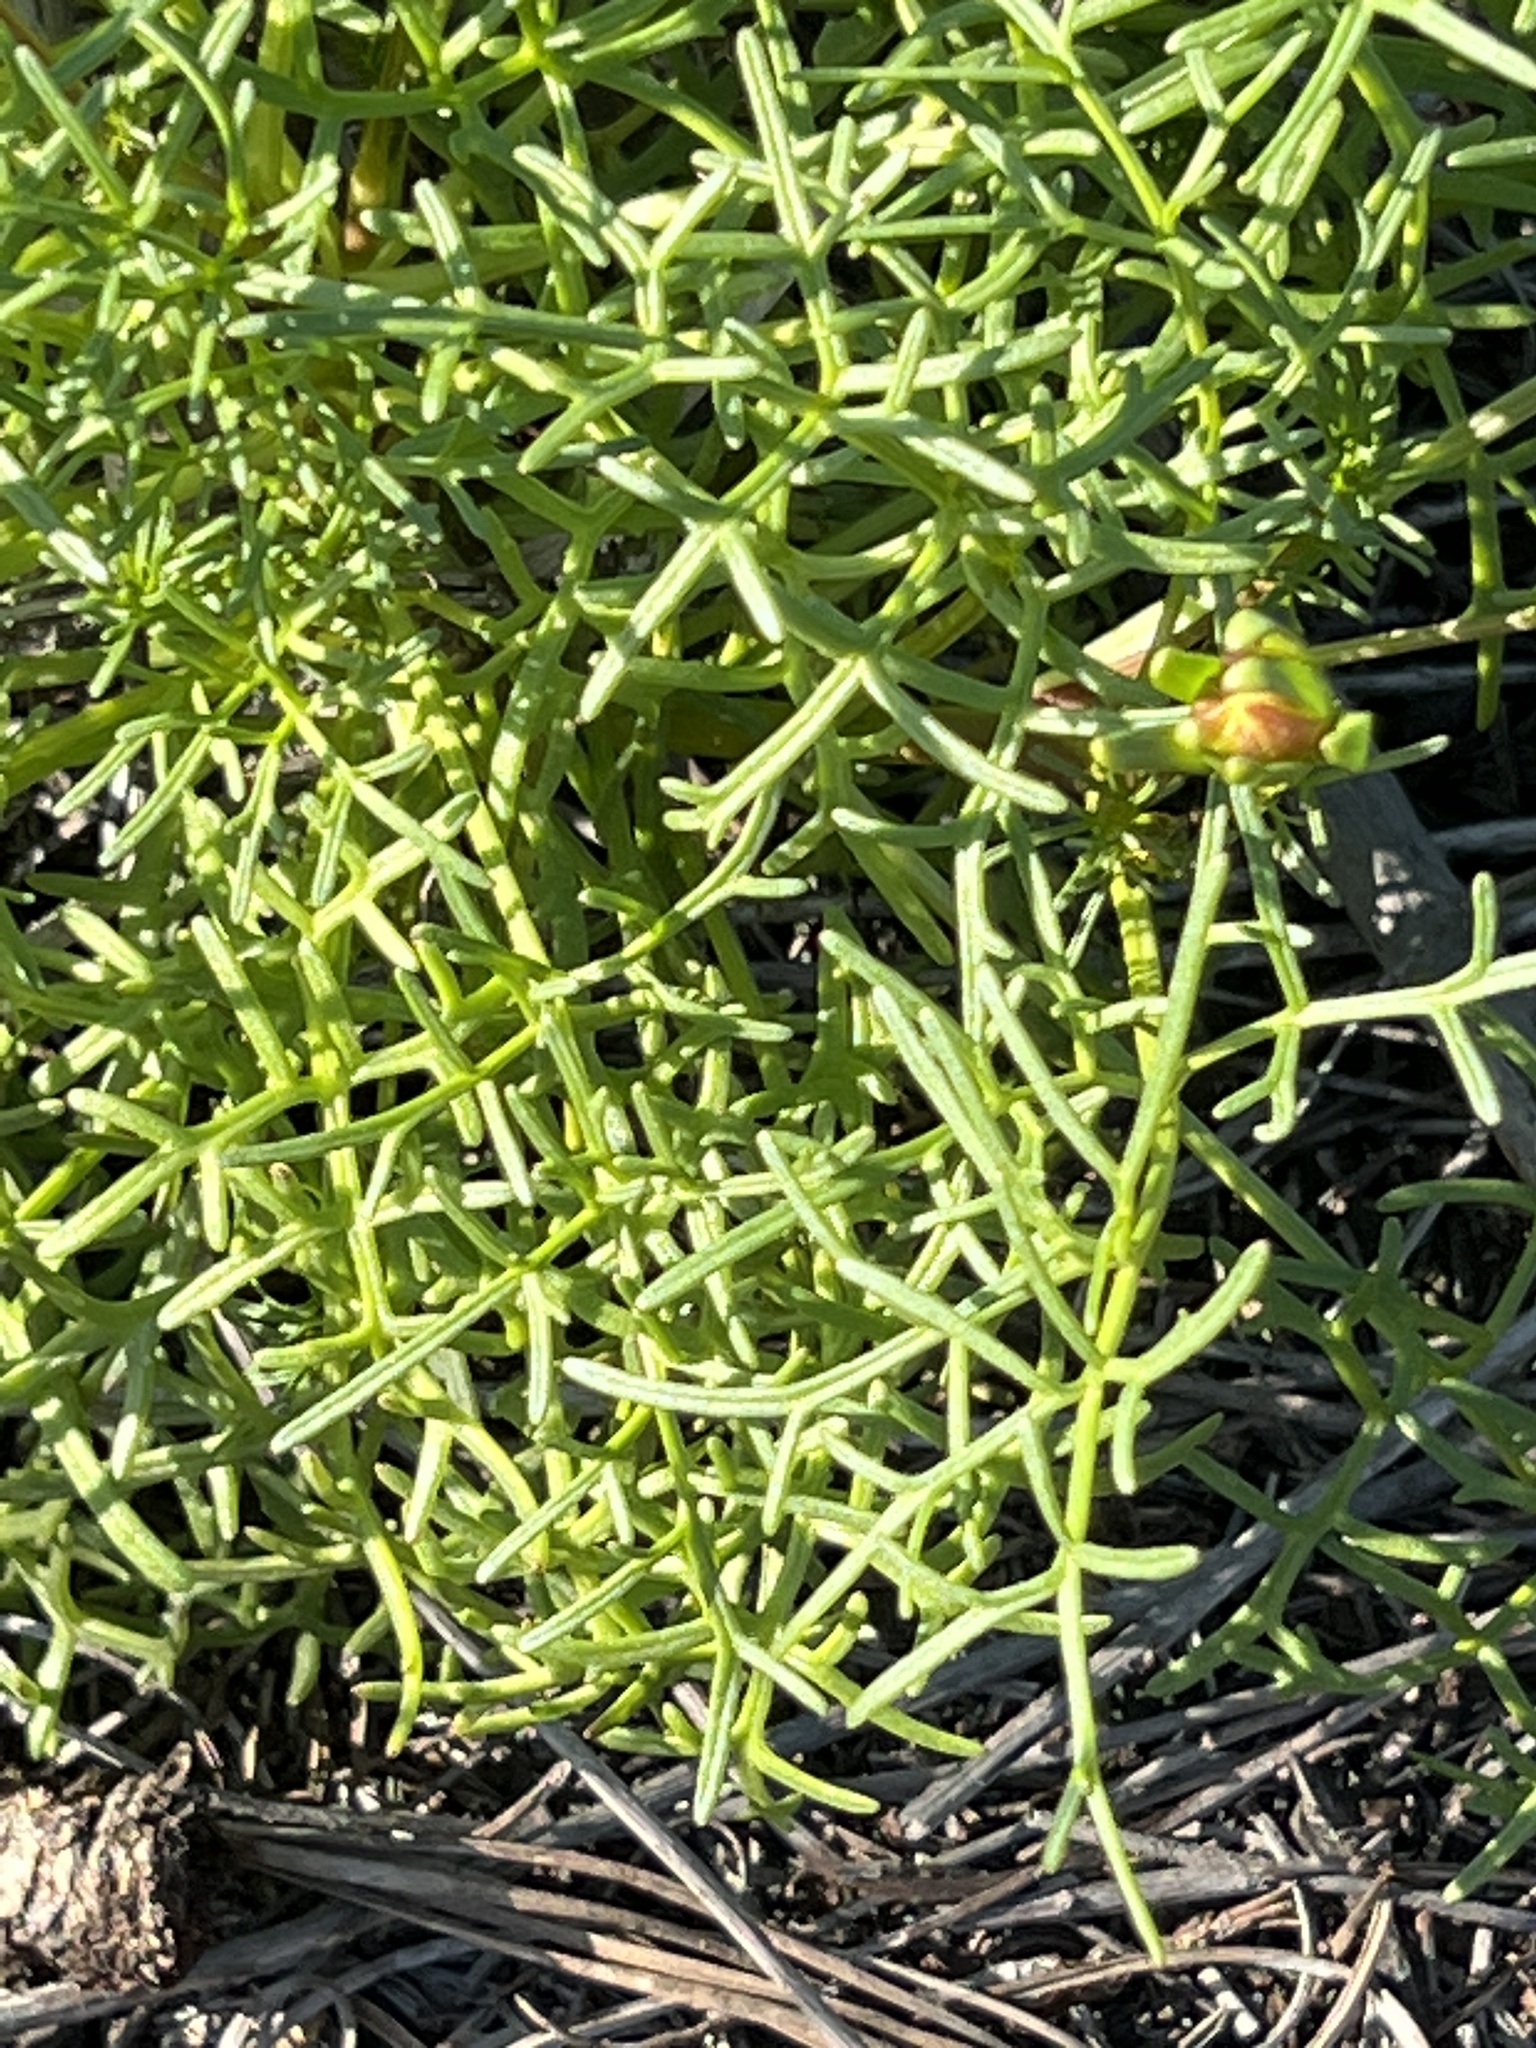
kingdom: Plantae
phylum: Tracheophyta
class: Magnoliopsida
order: Asterales
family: Asteraceae
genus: Coreopsis
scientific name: Coreopsis maritima
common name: Sea-dahlia
